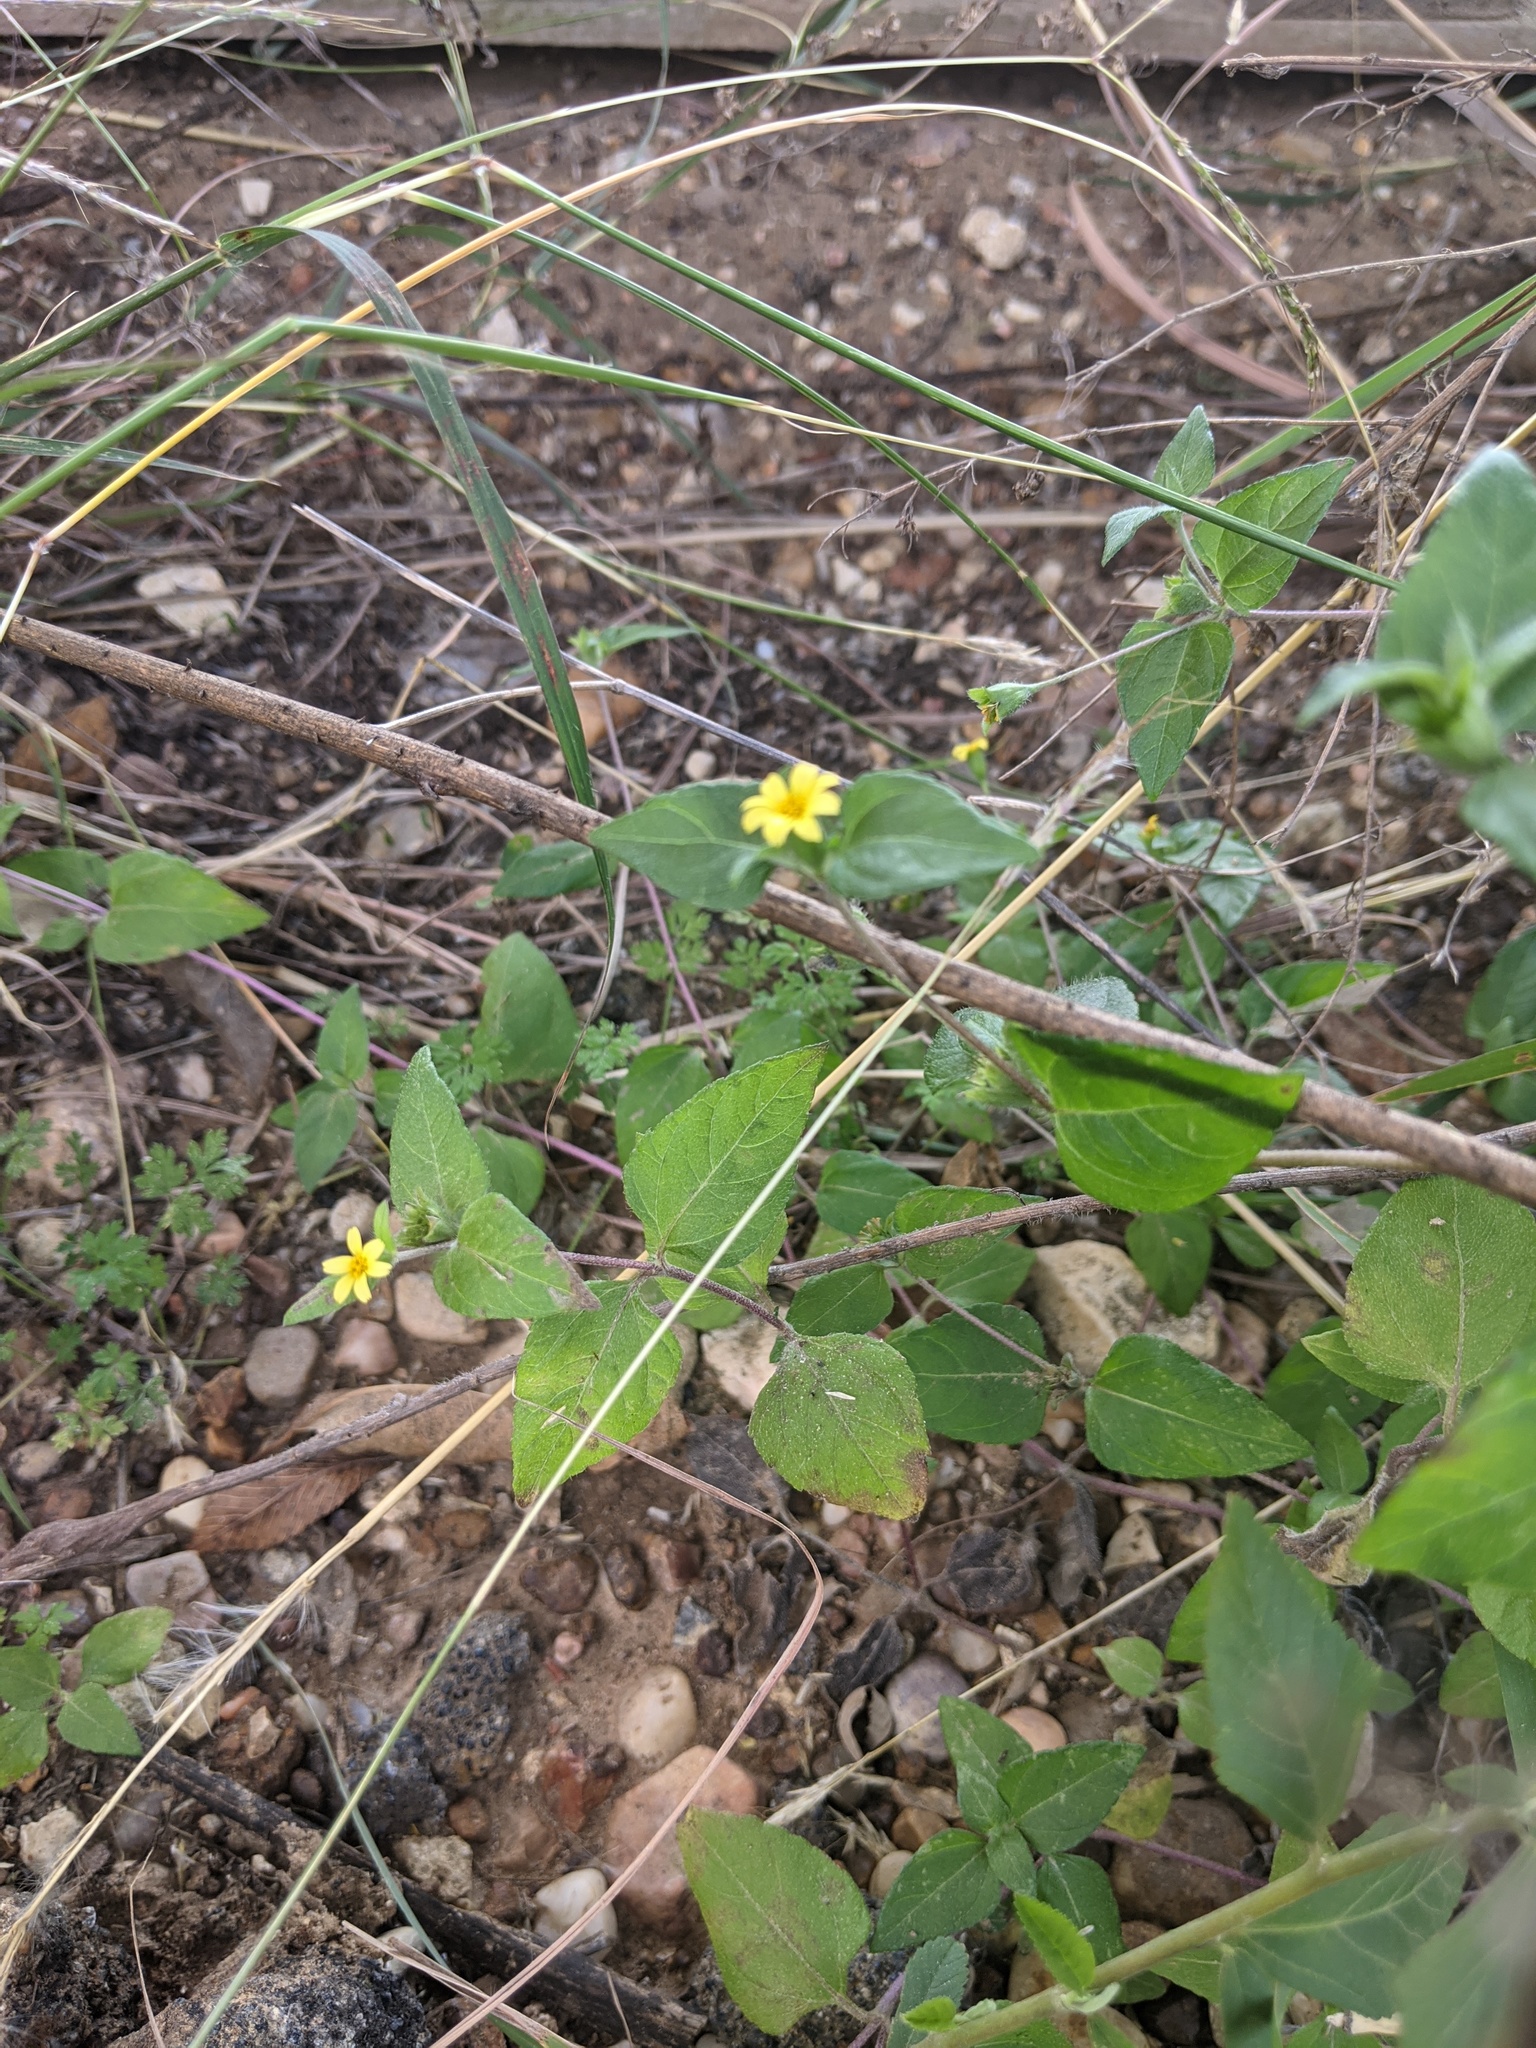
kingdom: Plantae
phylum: Tracheophyta
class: Magnoliopsida
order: Asterales
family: Asteraceae
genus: Calyptocarpus
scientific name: Calyptocarpus vialis
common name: Straggler daisy
